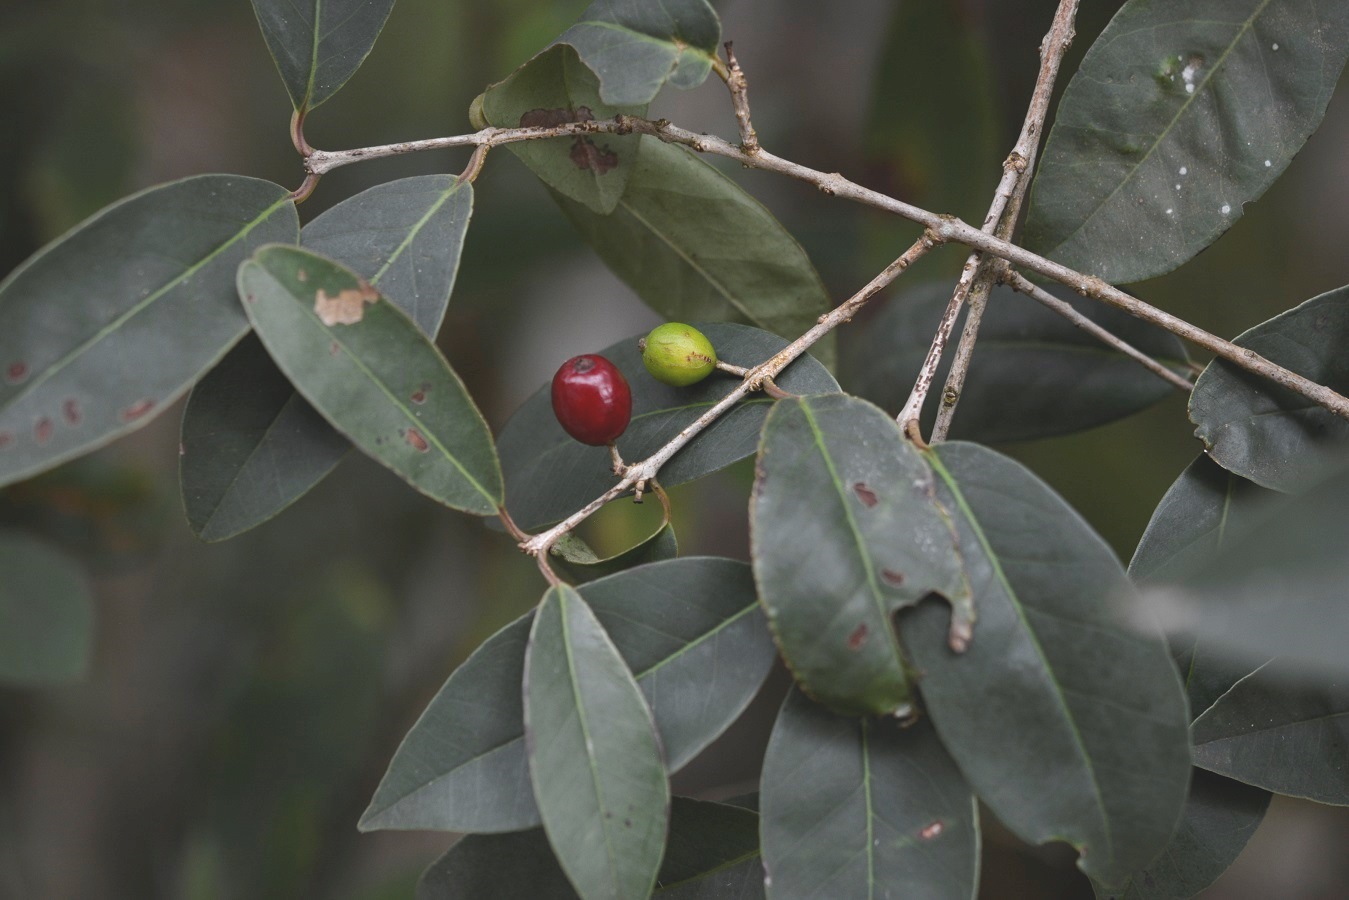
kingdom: Plantae
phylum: Tracheophyta
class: Magnoliopsida
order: Myrtales
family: Myrtaceae
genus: Eugenia
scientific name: Eugenia axillaris
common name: Choaky berry
